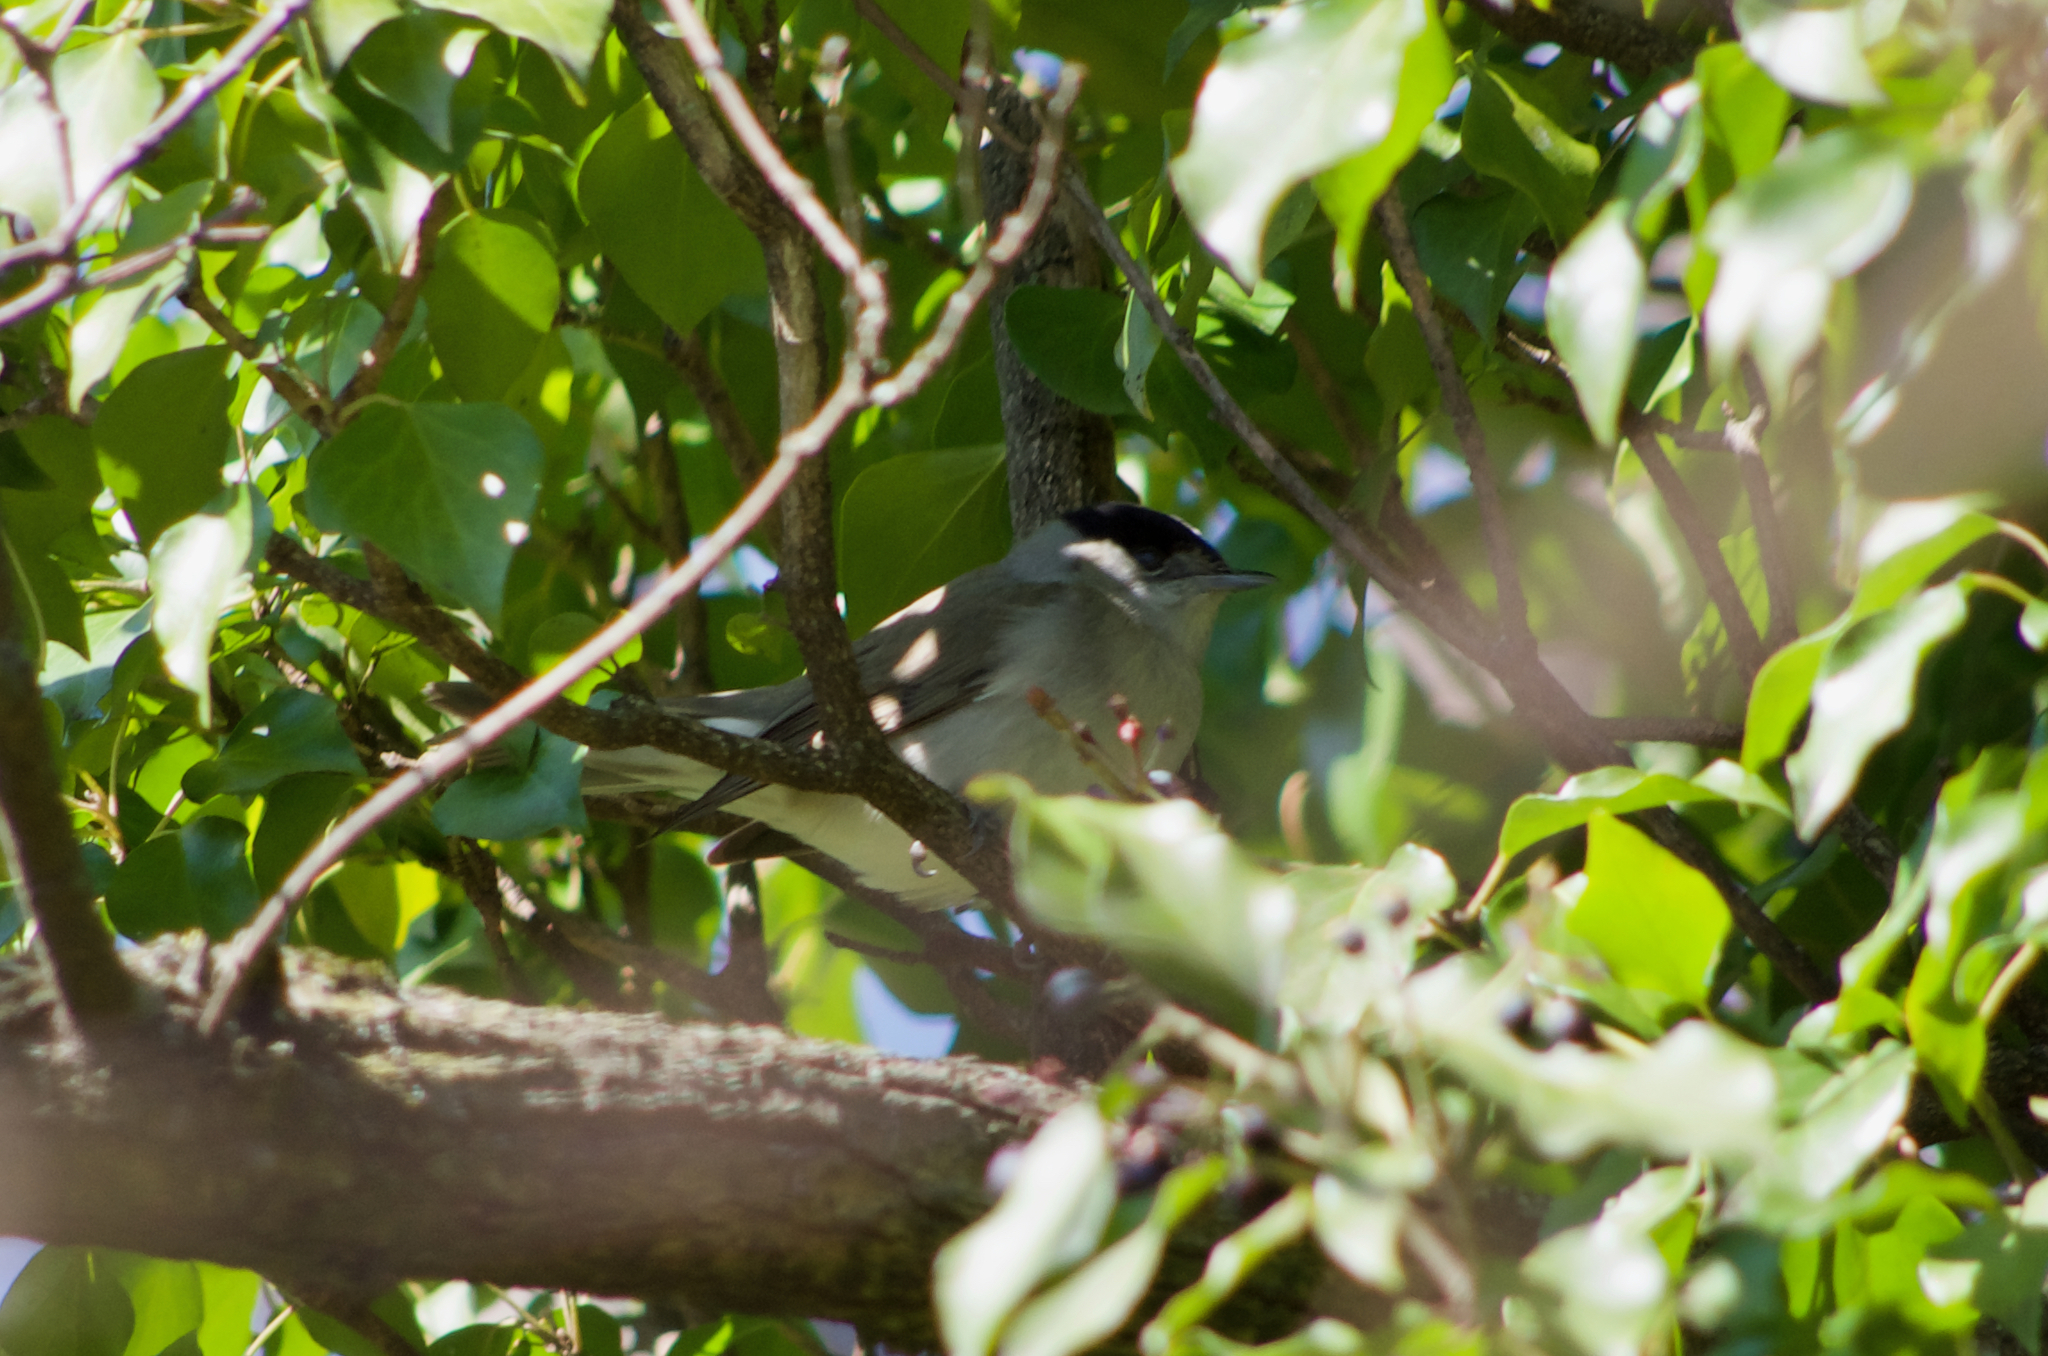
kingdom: Animalia
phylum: Chordata
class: Aves
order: Passeriformes
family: Sylviidae
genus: Sylvia
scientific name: Sylvia atricapilla
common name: Eurasian blackcap
